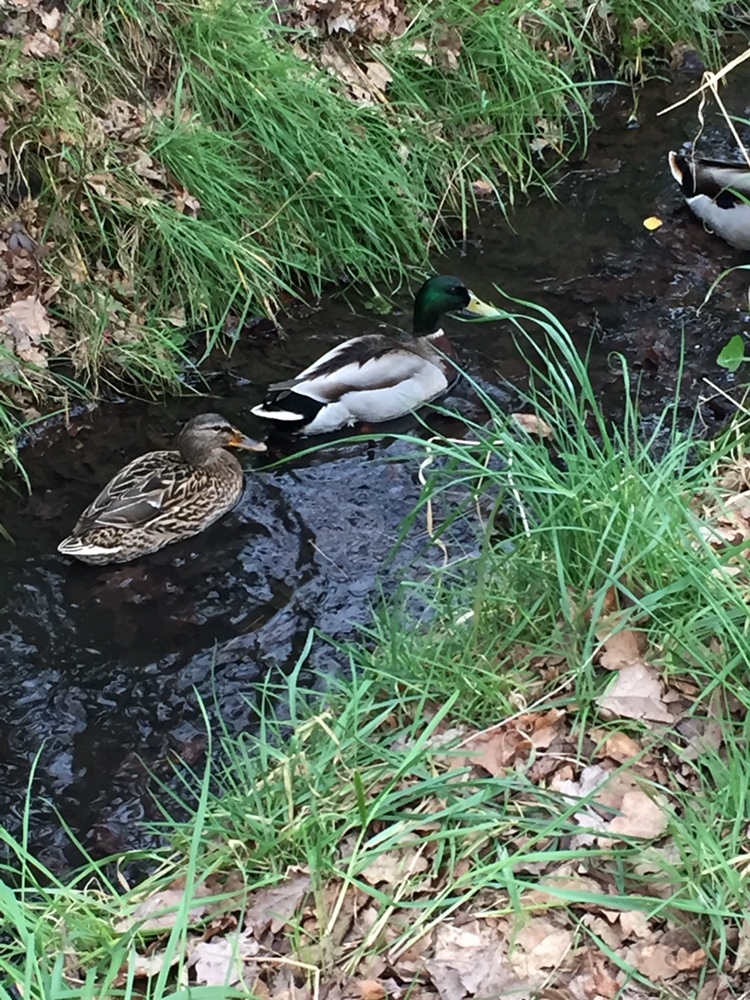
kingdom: Animalia
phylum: Chordata
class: Aves
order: Anseriformes
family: Anatidae
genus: Anas
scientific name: Anas platyrhynchos
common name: Mallard
